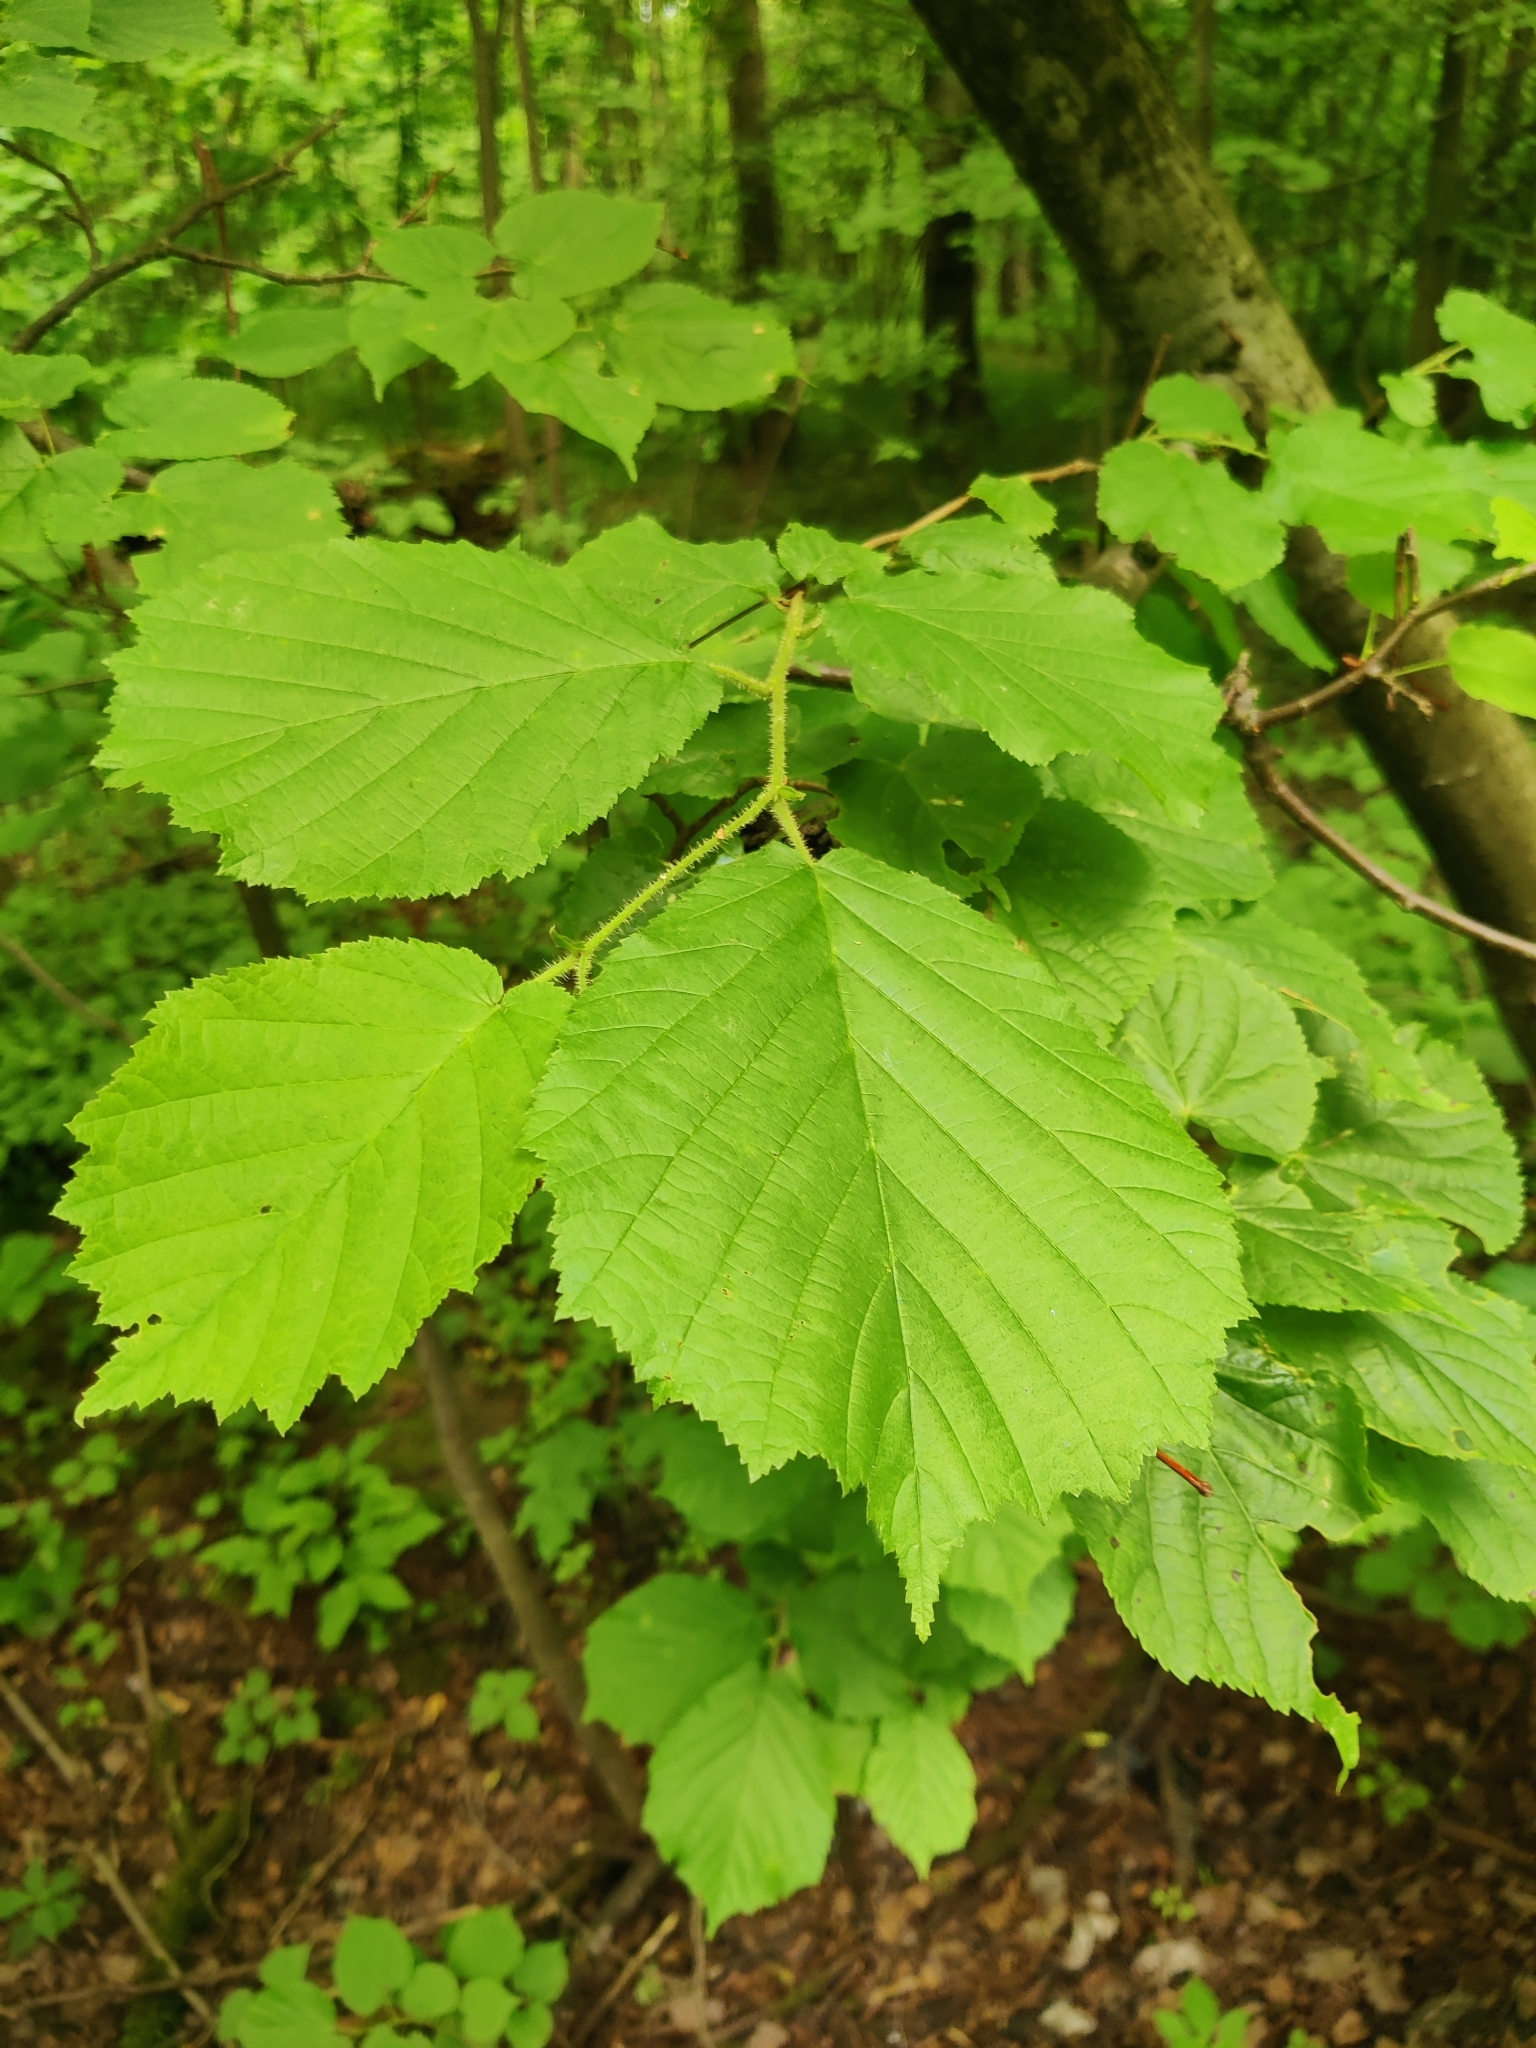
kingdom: Plantae
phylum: Tracheophyta
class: Magnoliopsida
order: Fagales
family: Betulaceae
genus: Corylus
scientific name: Corylus avellana
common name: European hazel
